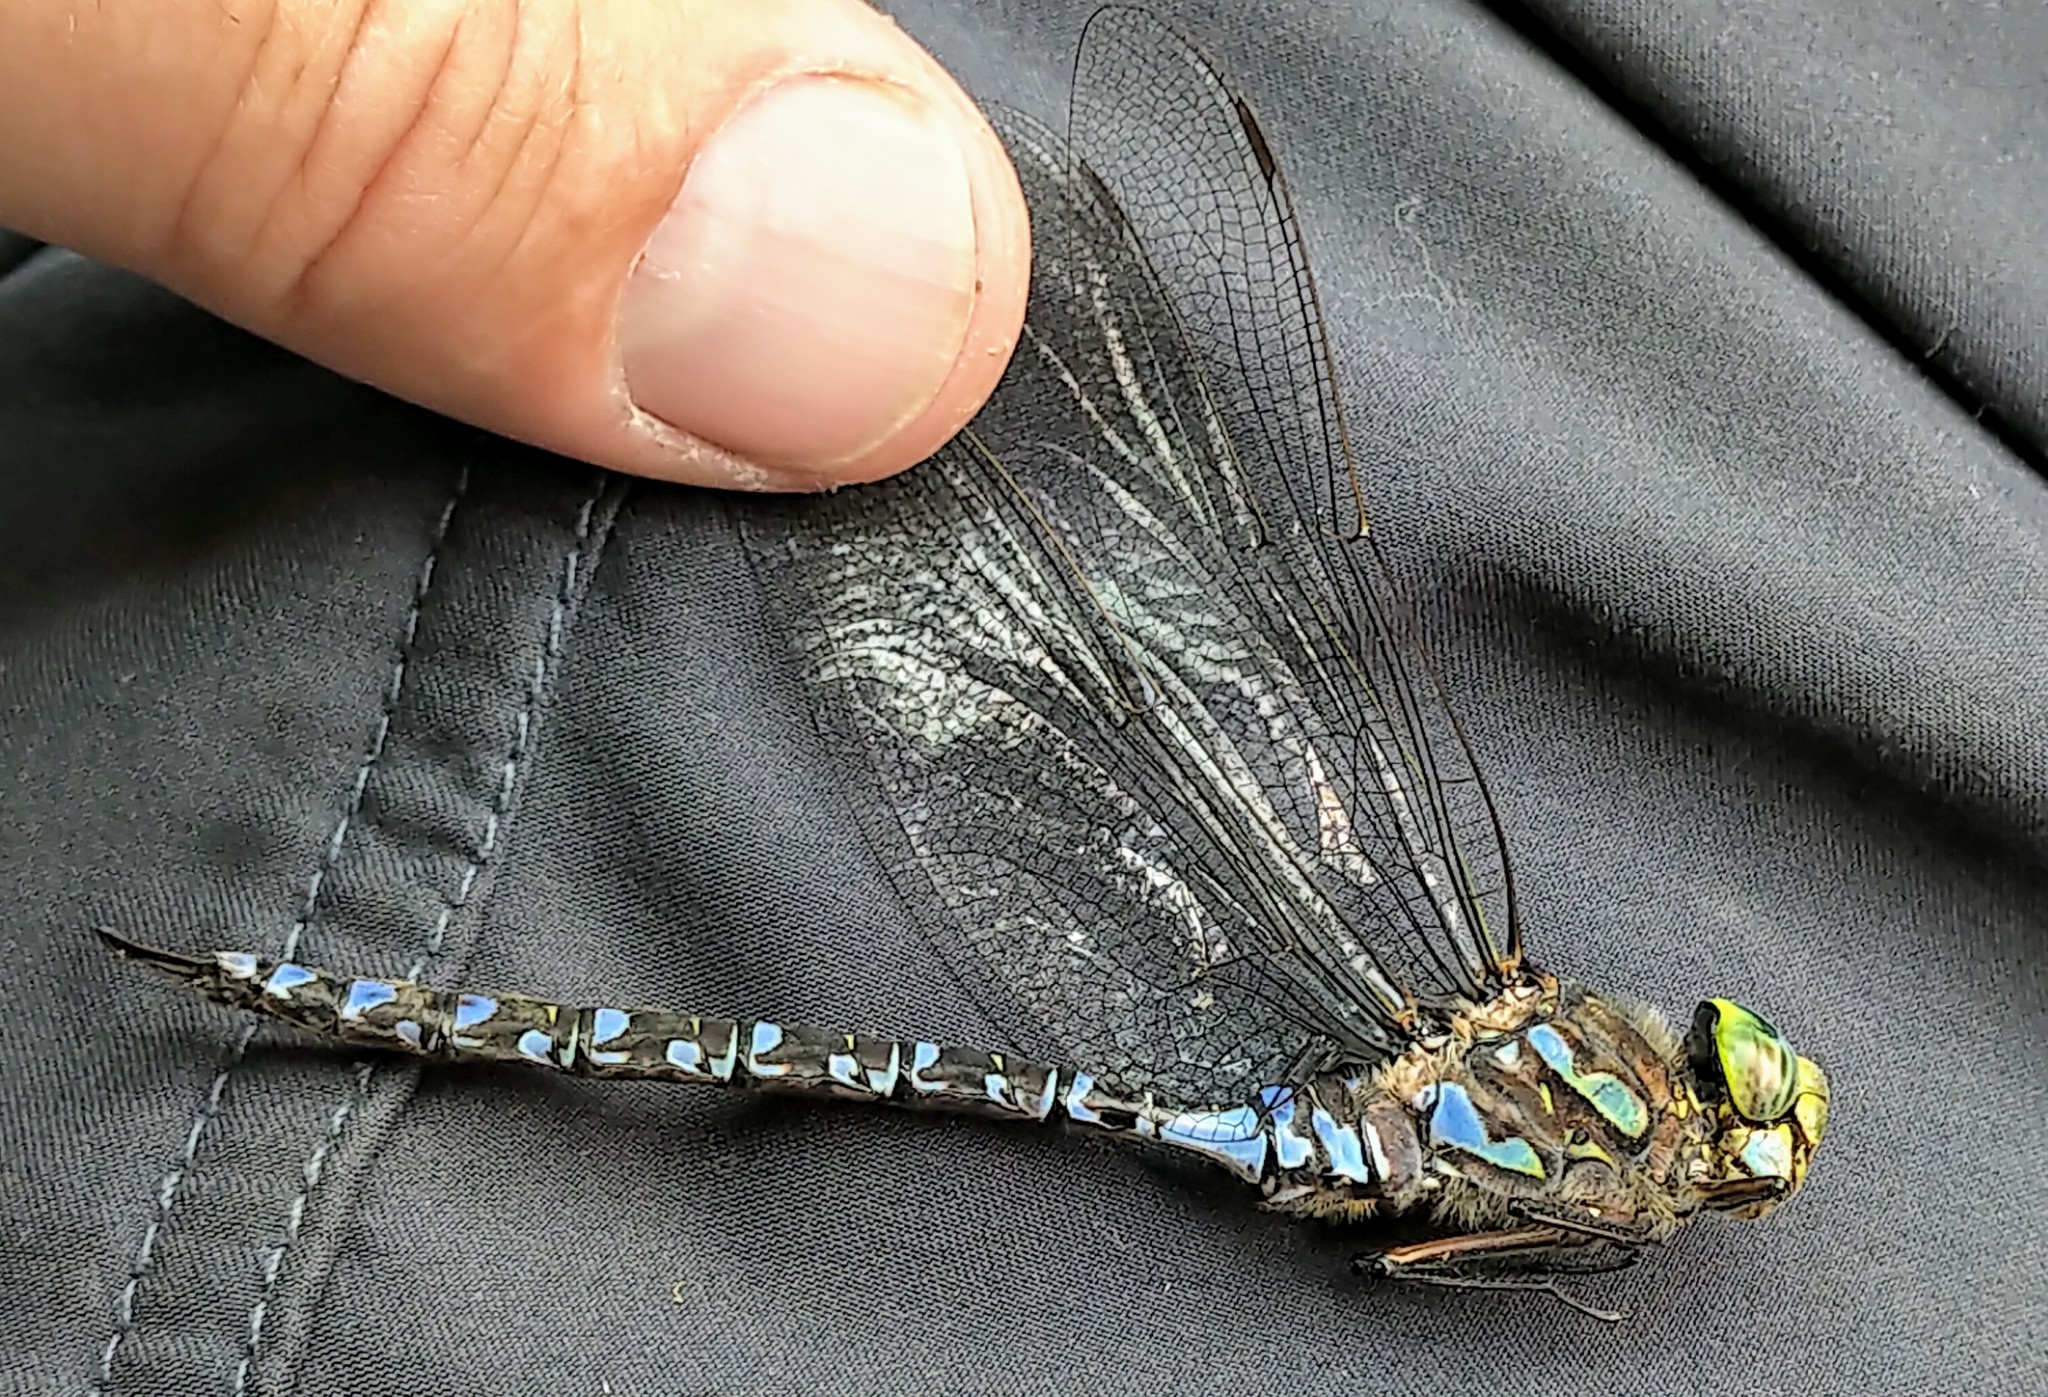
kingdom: Animalia
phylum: Arthropoda
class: Insecta
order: Odonata
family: Aeshnidae
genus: Aeshna
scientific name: Aeshna eremita
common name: Lake darner
